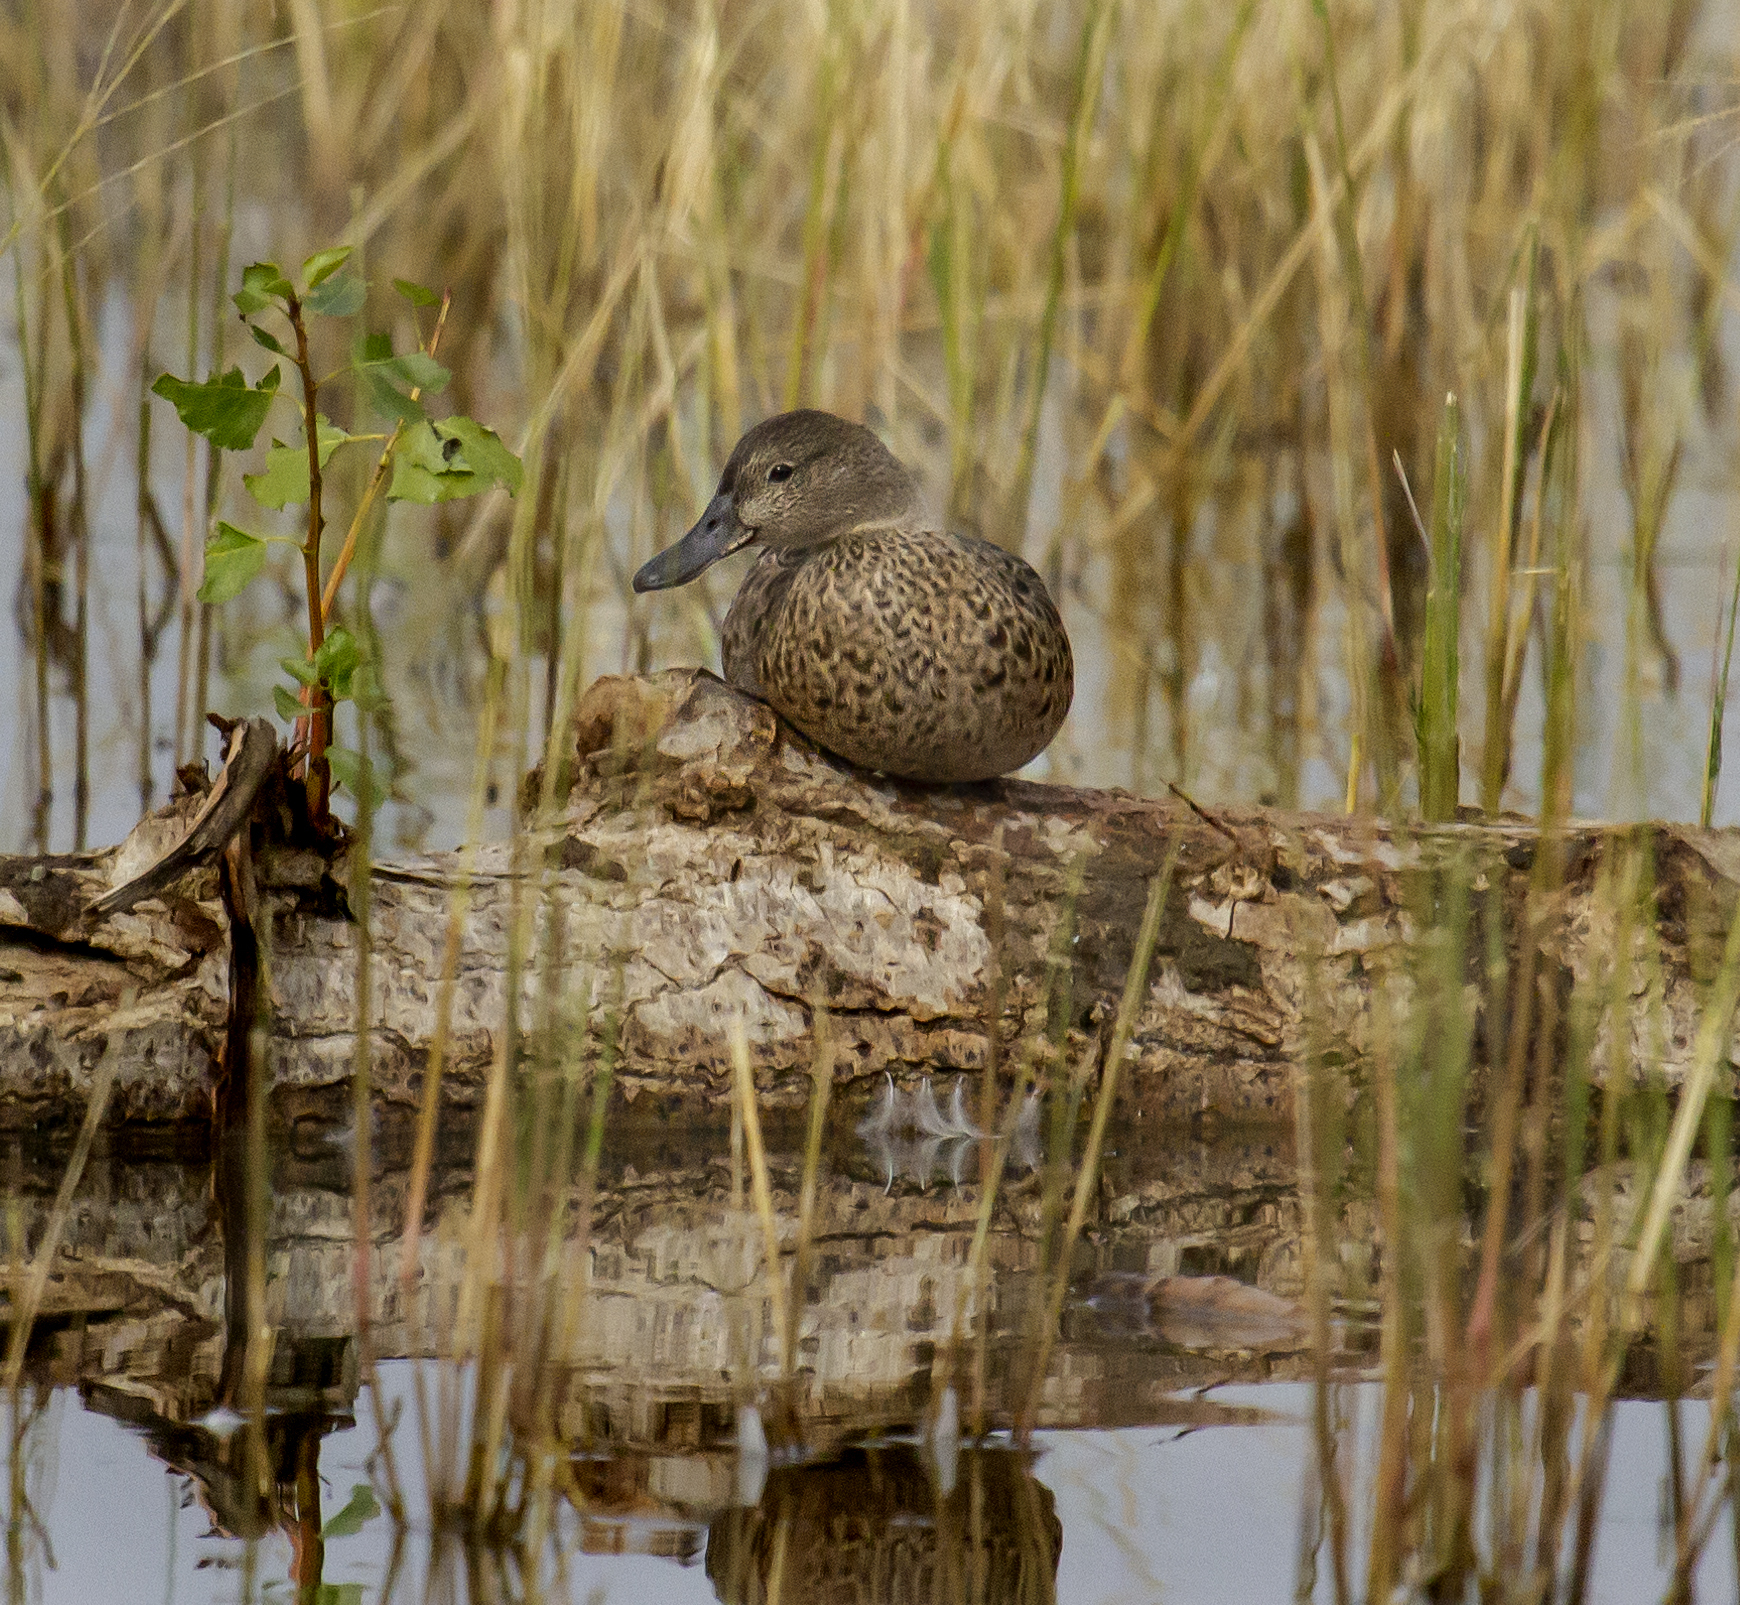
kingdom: Animalia
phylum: Chordata
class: Aves
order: Anseriformes
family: Anatidae
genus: Spatula
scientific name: Spatula cyanoptera
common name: Cinnamon teal
